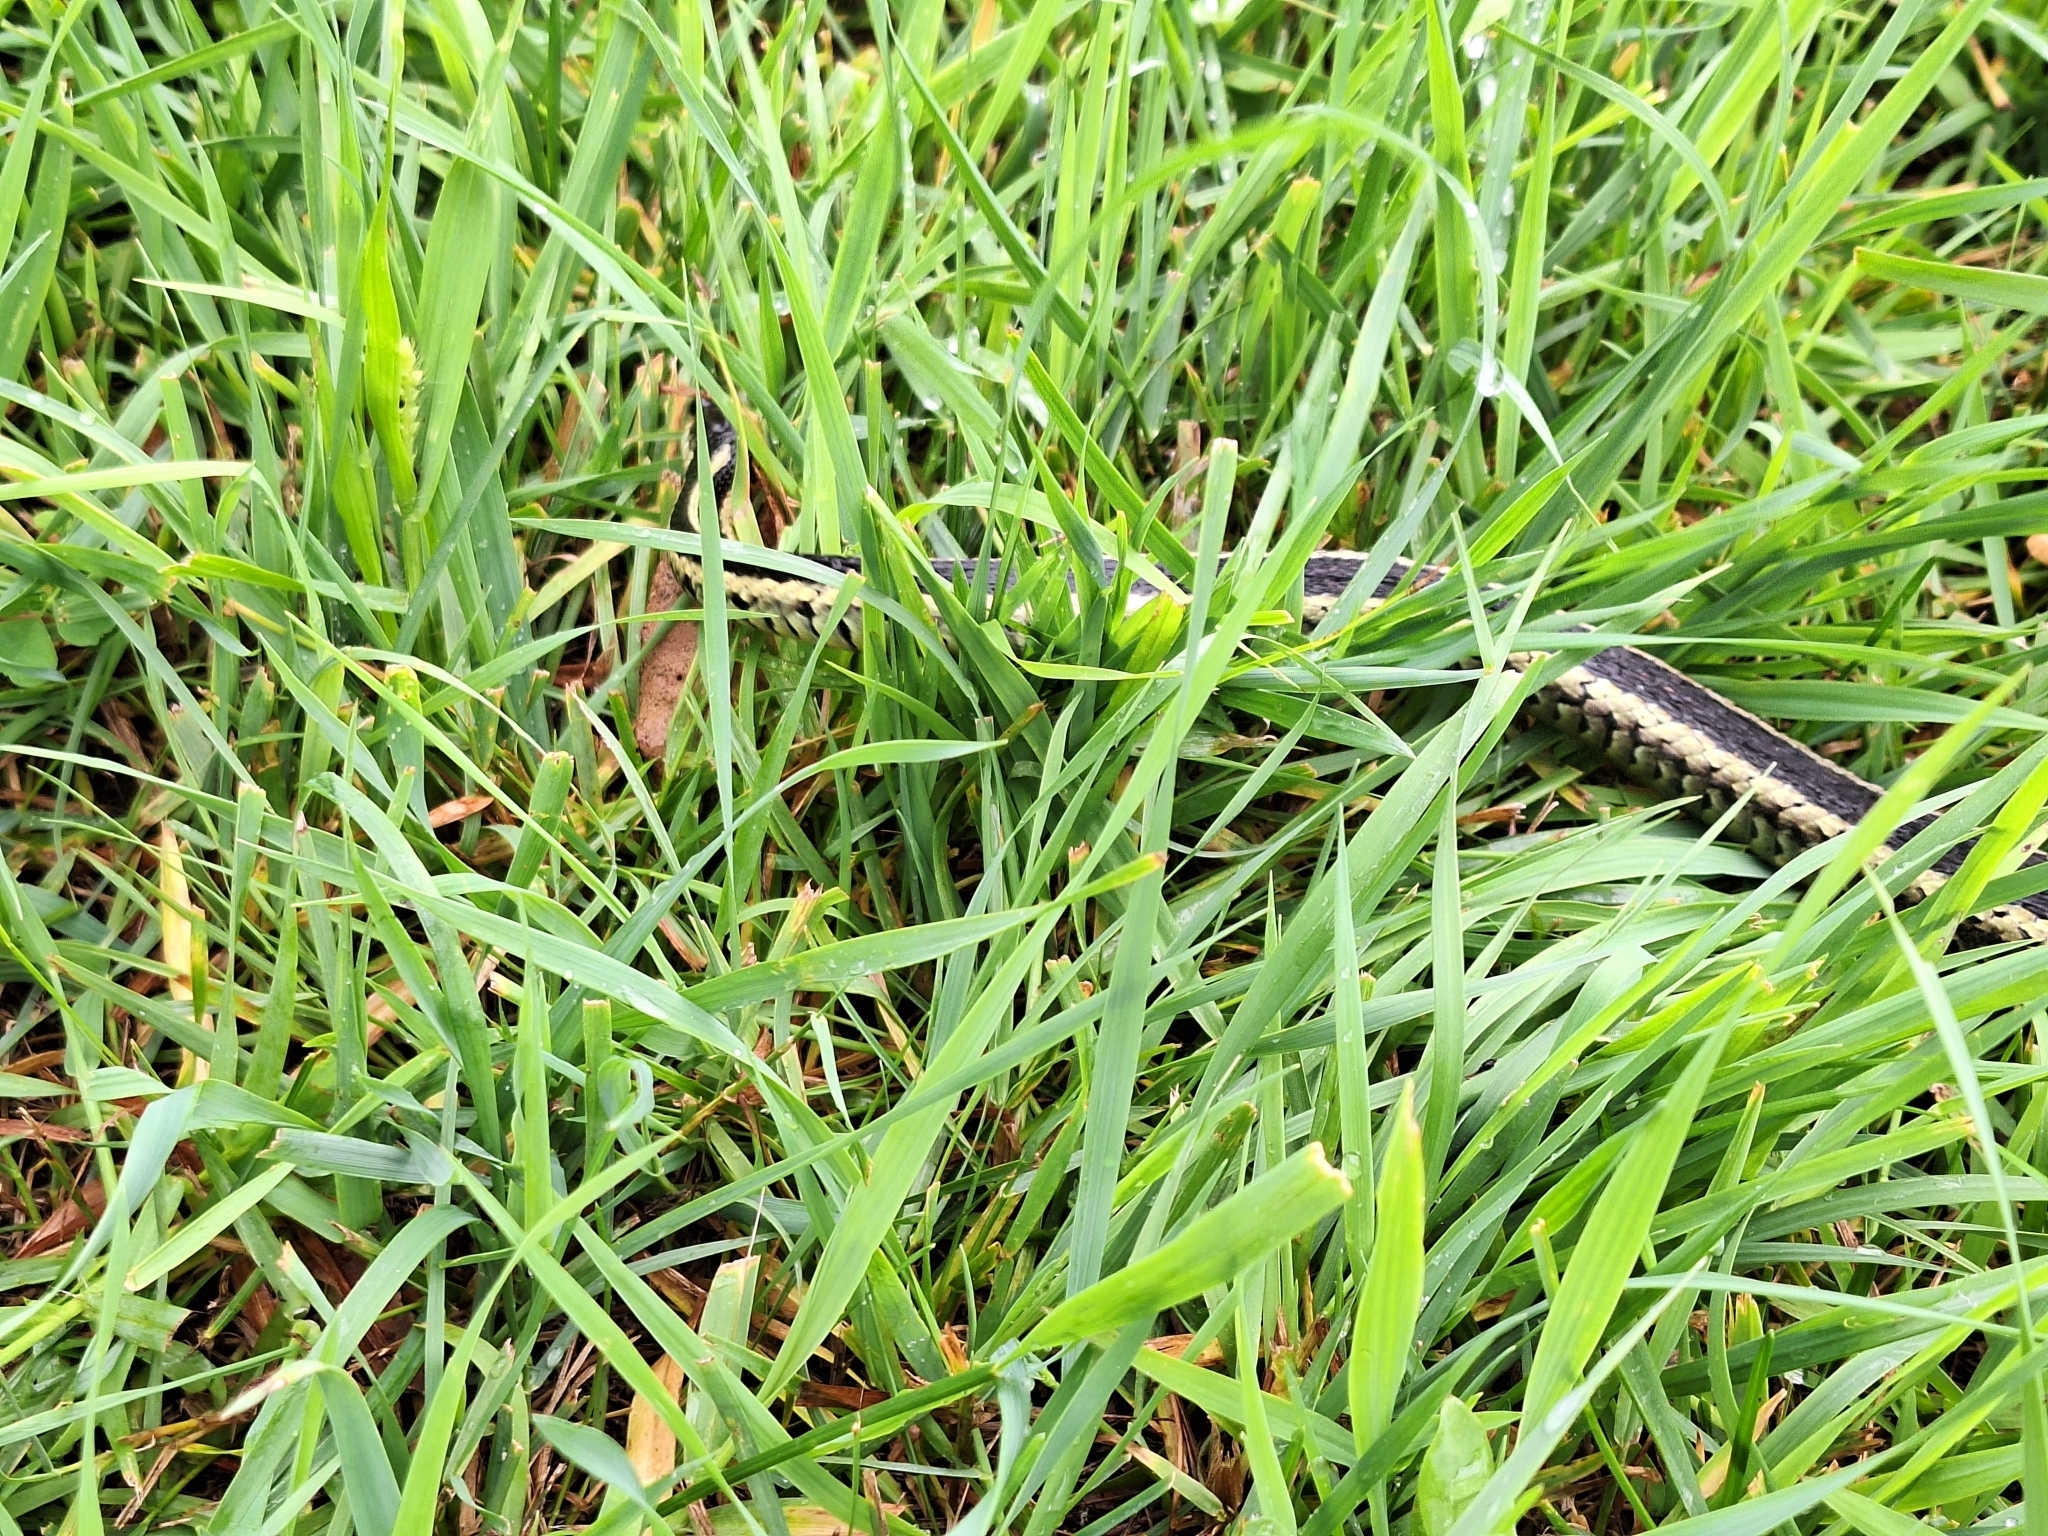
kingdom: Animalia
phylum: Chordata
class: Squamata
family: Colubridae
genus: Thamnophis
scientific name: Thamnophis sirtalis
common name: Common garter snake
